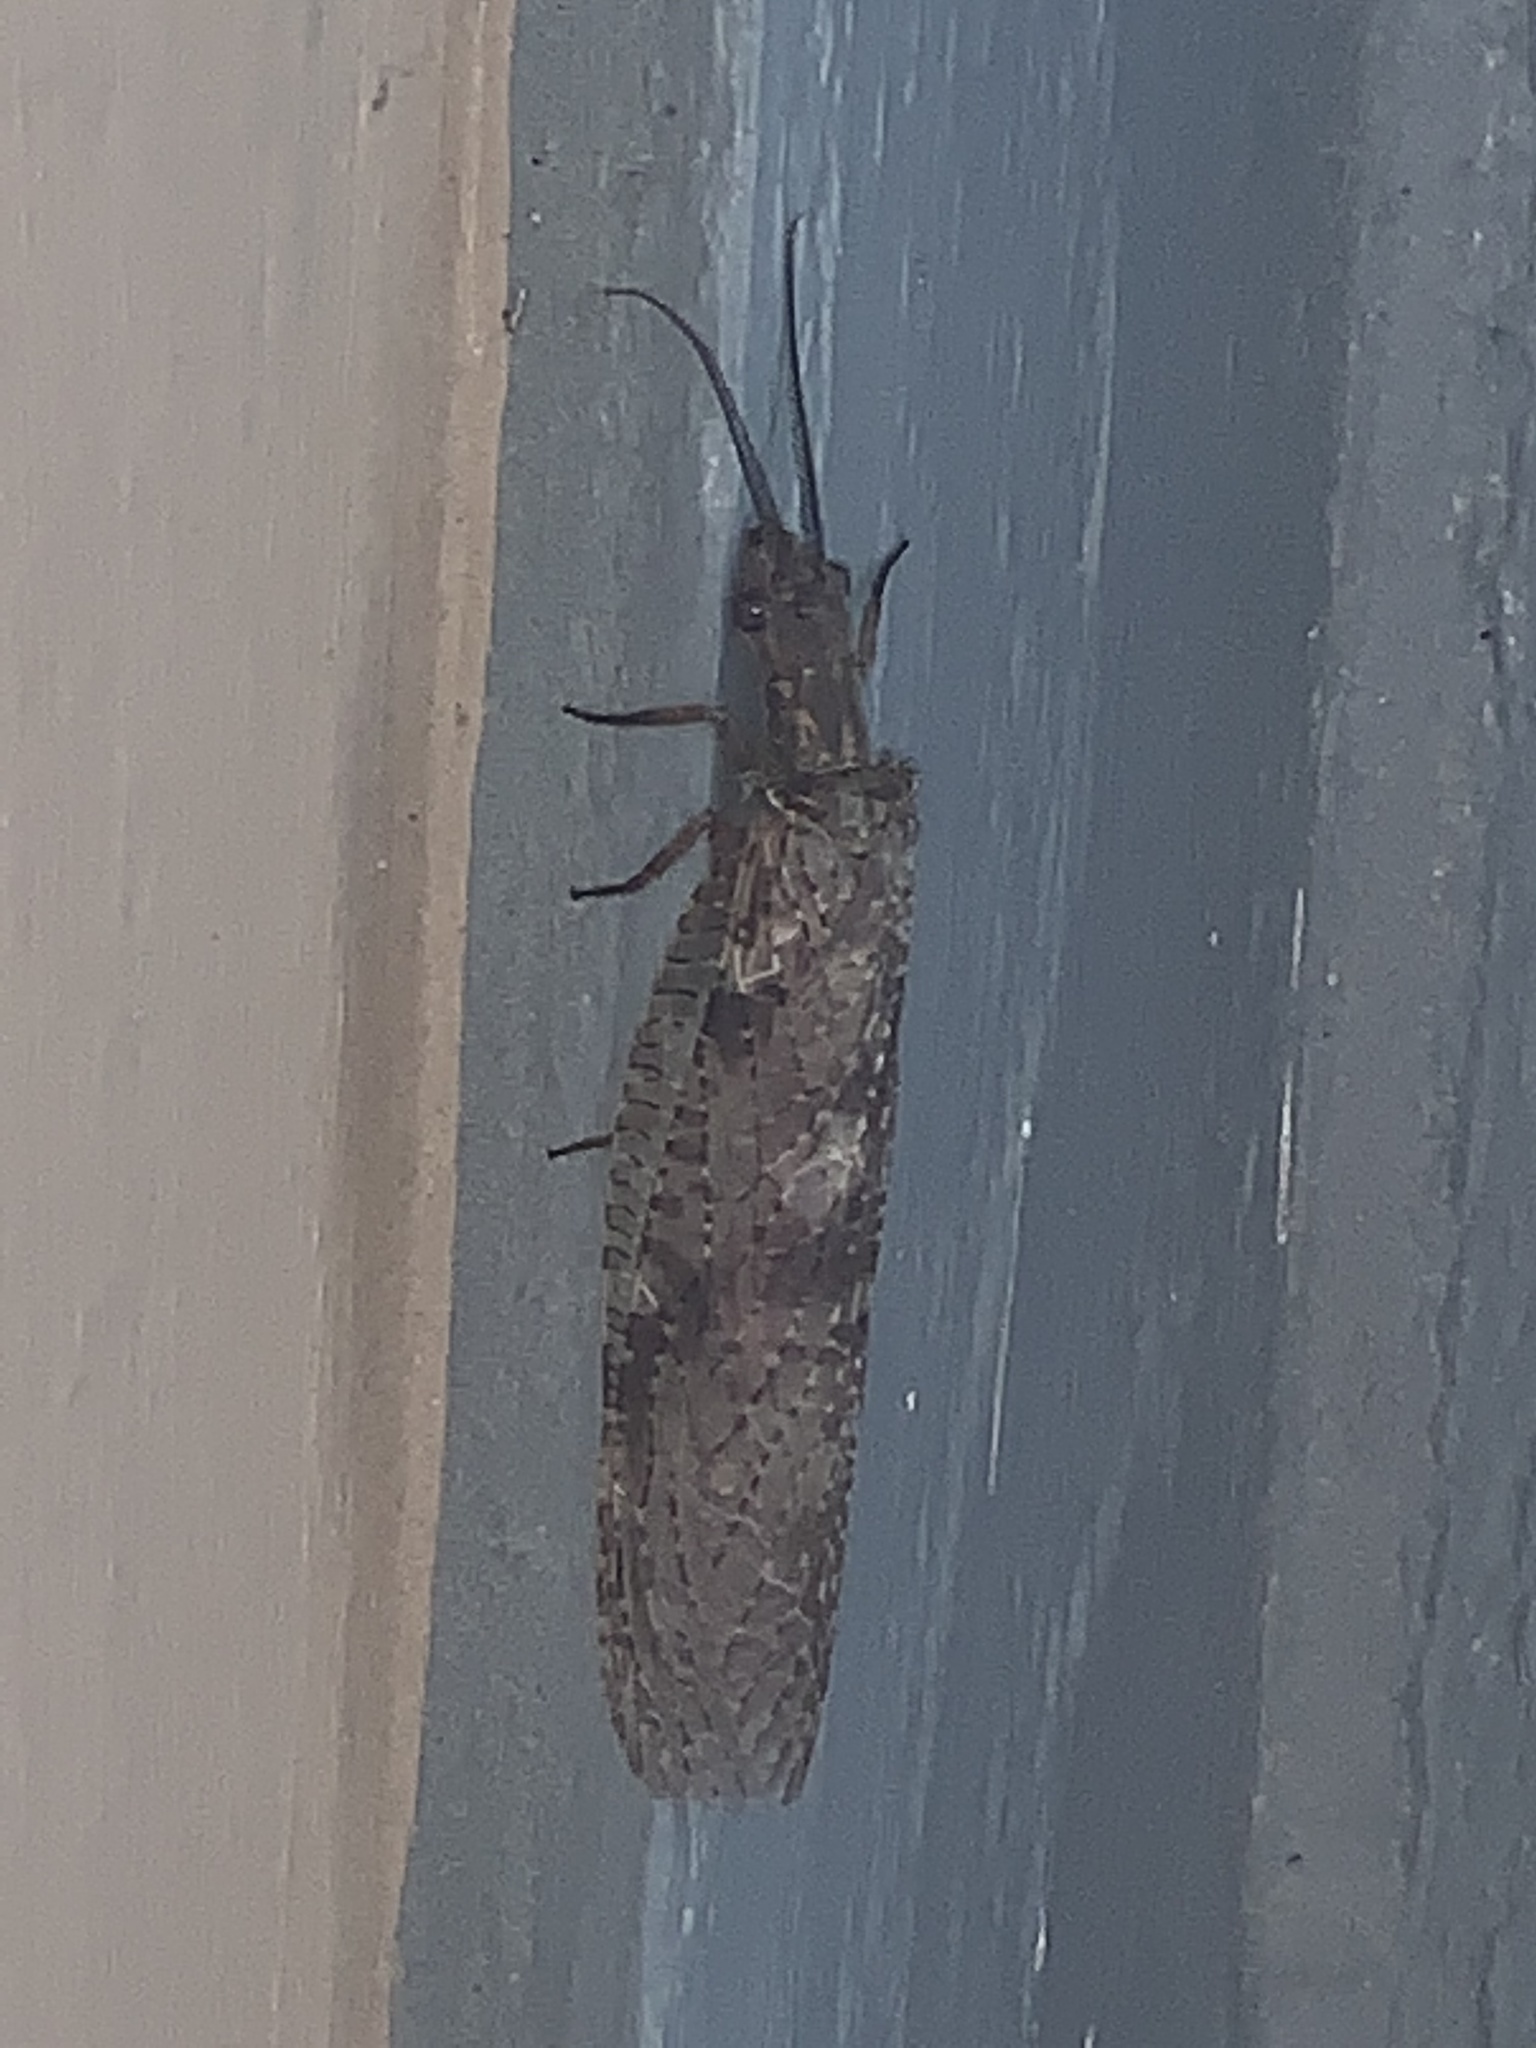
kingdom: Animalia
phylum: Arthropoda
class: Insecta
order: Megaloptera
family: Corydalidae
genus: Chauliodes
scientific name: Chauliodes pectinicornis
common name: Summer fishfly
